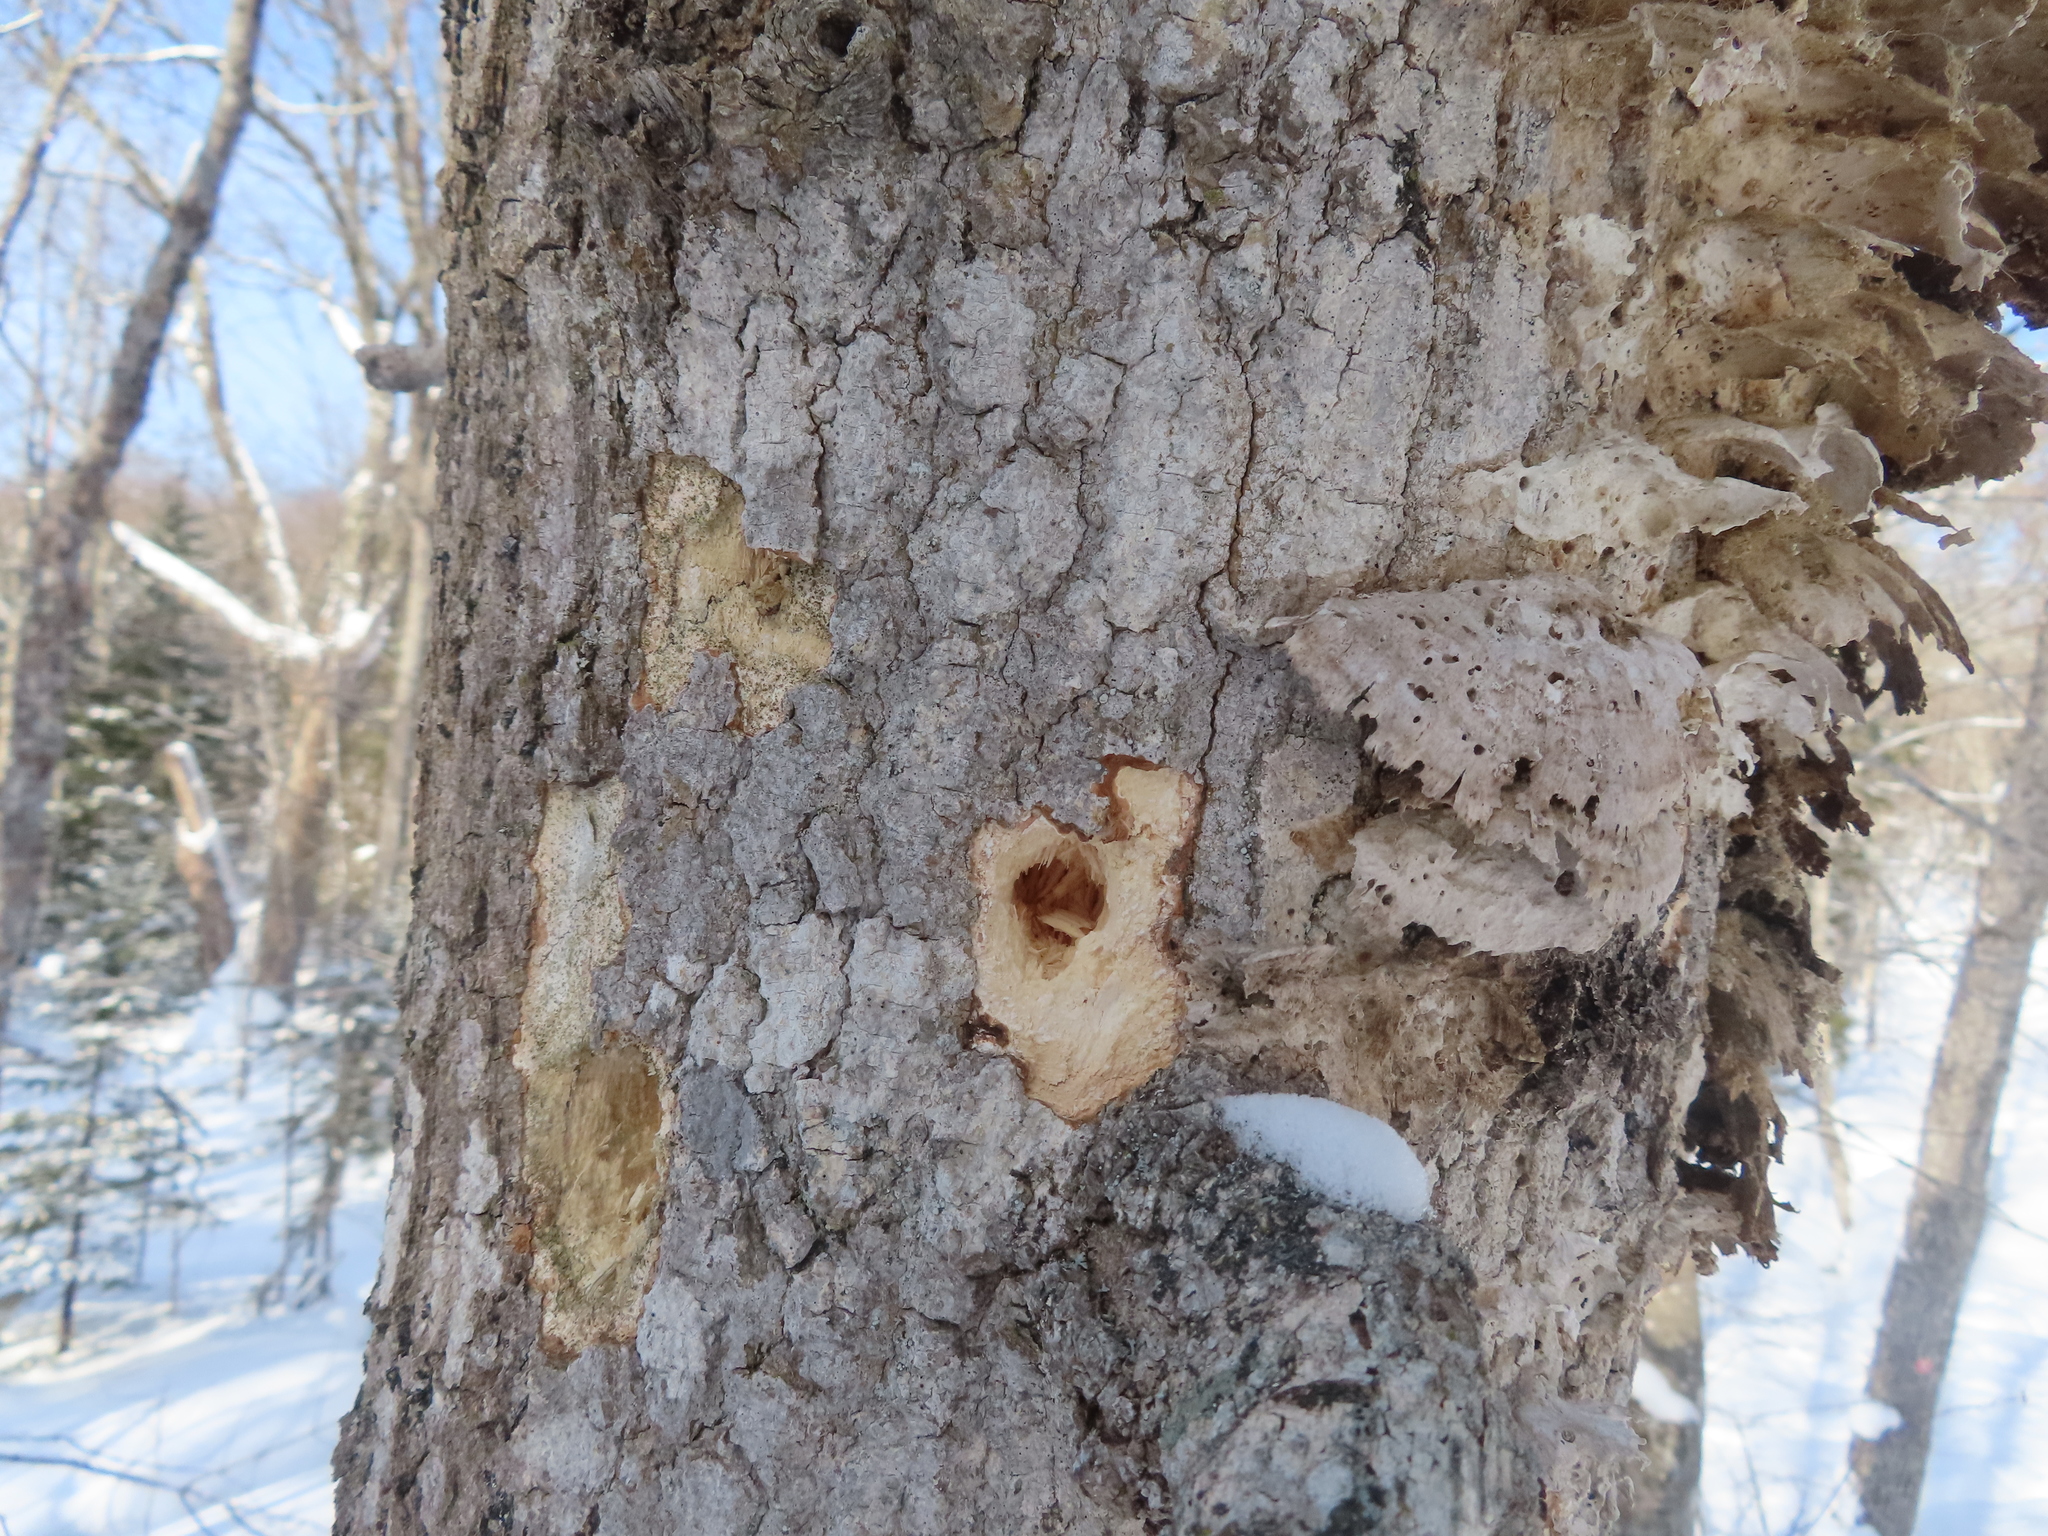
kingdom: Animalia
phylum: Chordata
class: Aves
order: Piciformes
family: Picidae
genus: Dryocopus
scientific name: Dryocopus pileatus
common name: Pileated woodpecker
